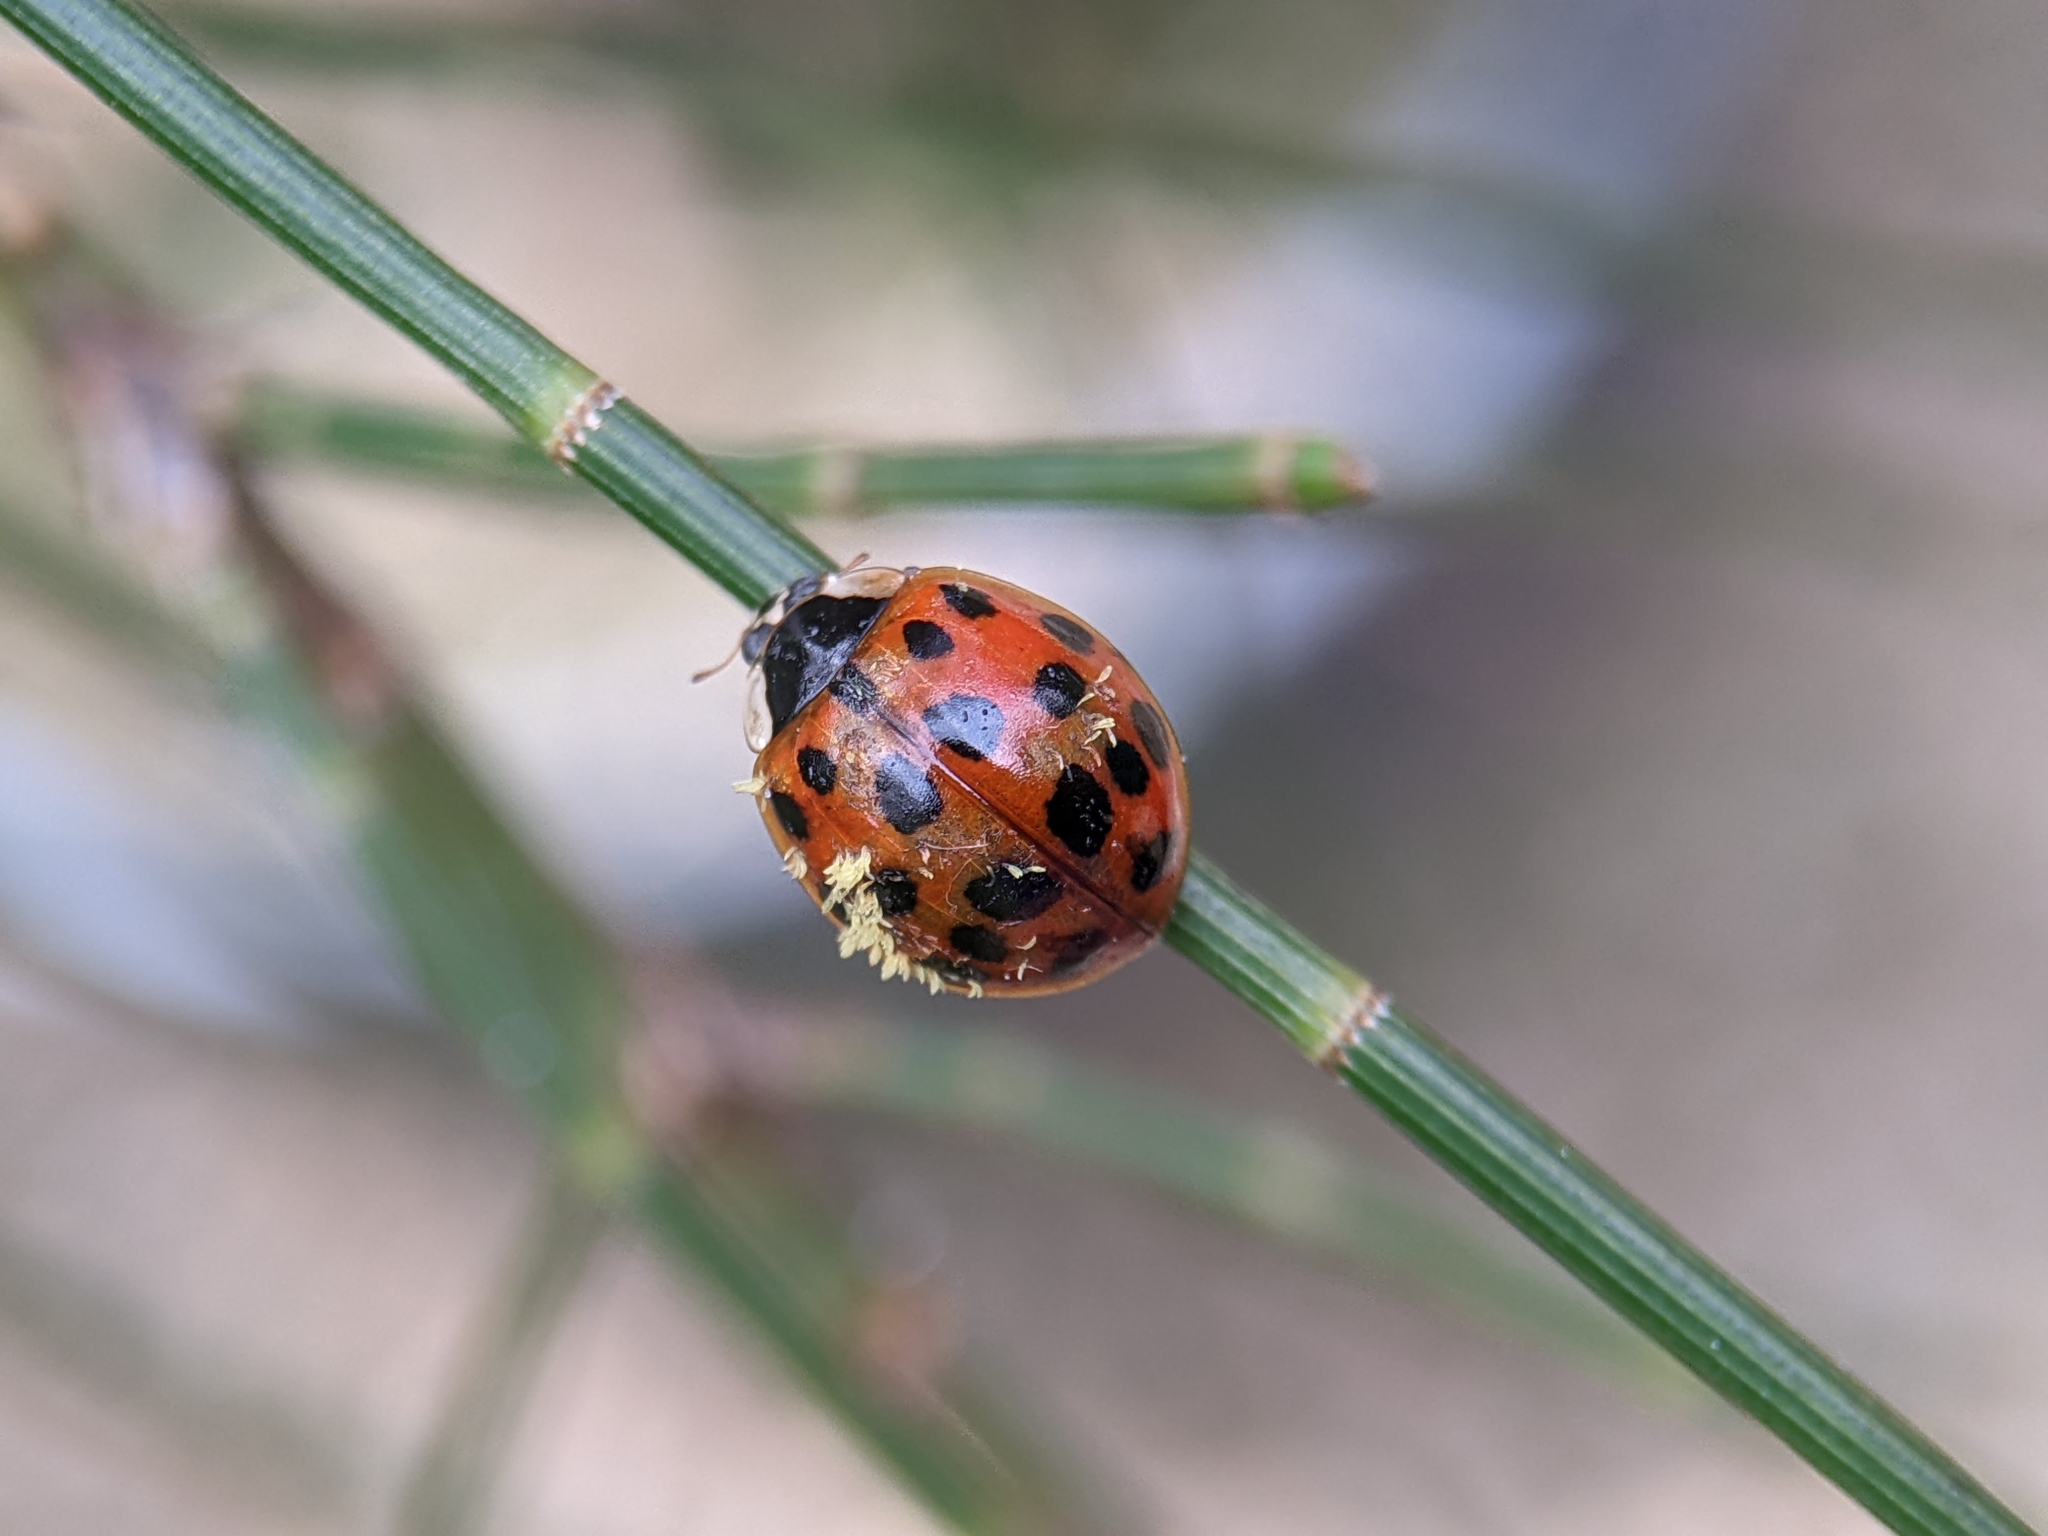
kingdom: Fungi
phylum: Ascomycota
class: Laboulbeniomycetes
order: Laboulbeniales
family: Laboulbeniaceae
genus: Hesperomyces
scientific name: Hesperomyces harmoniae
